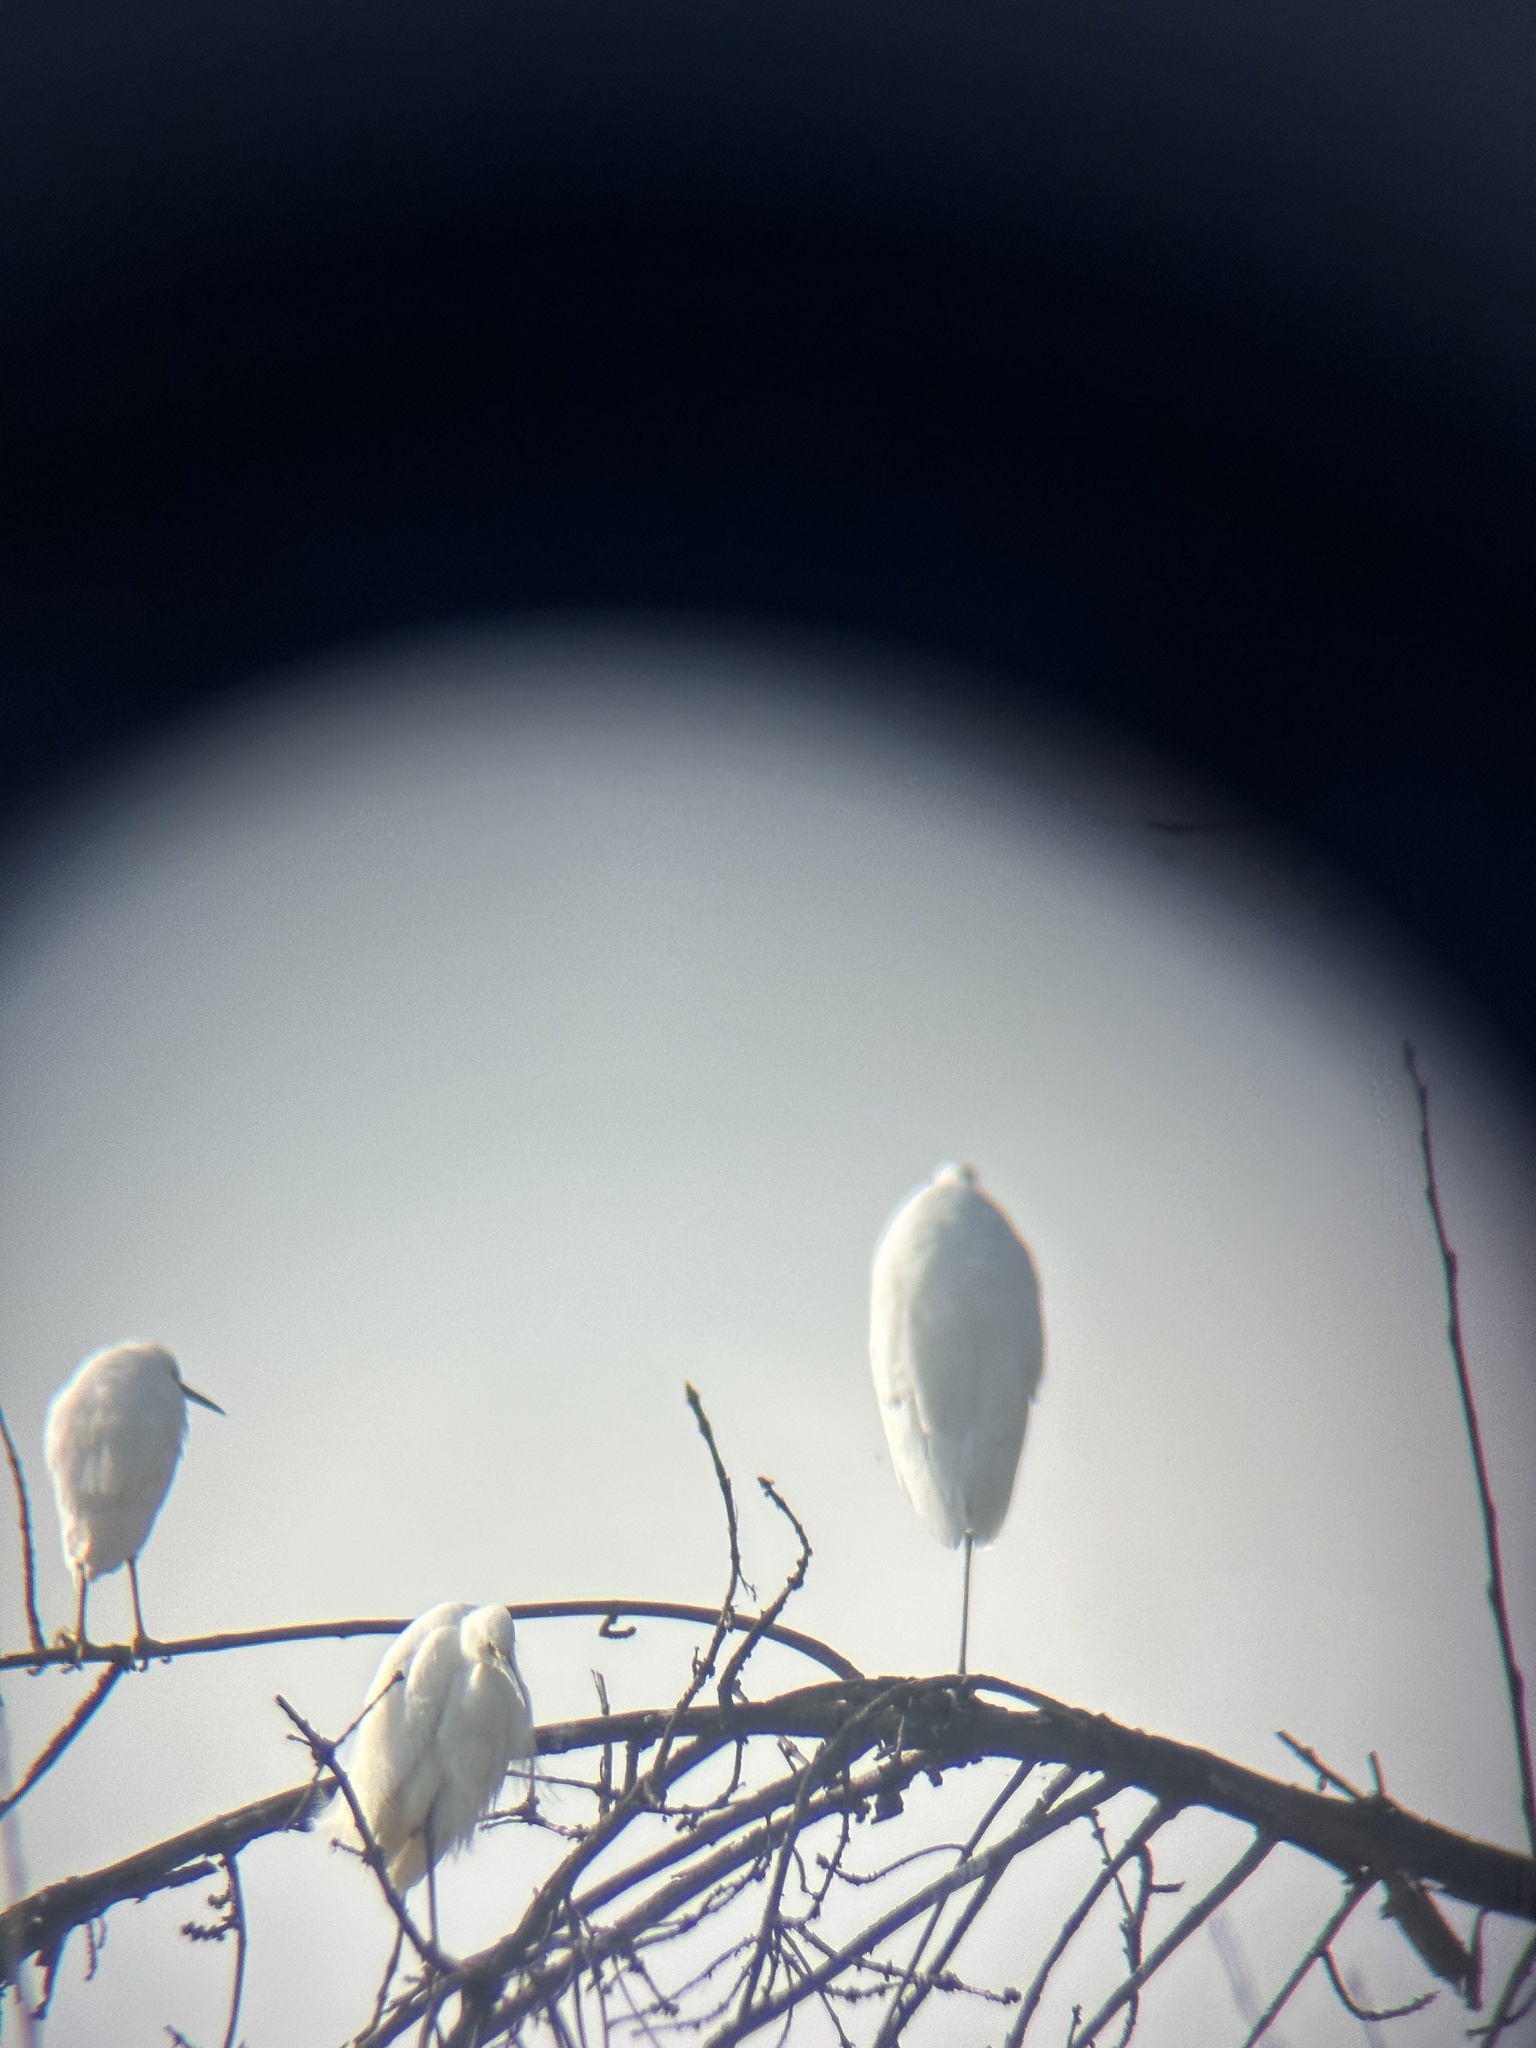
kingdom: Animalia
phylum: Chordata
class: Aves
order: Pelecaniformes
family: Ardeidae
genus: Egretta
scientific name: Egretta thula
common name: Snowy egret
